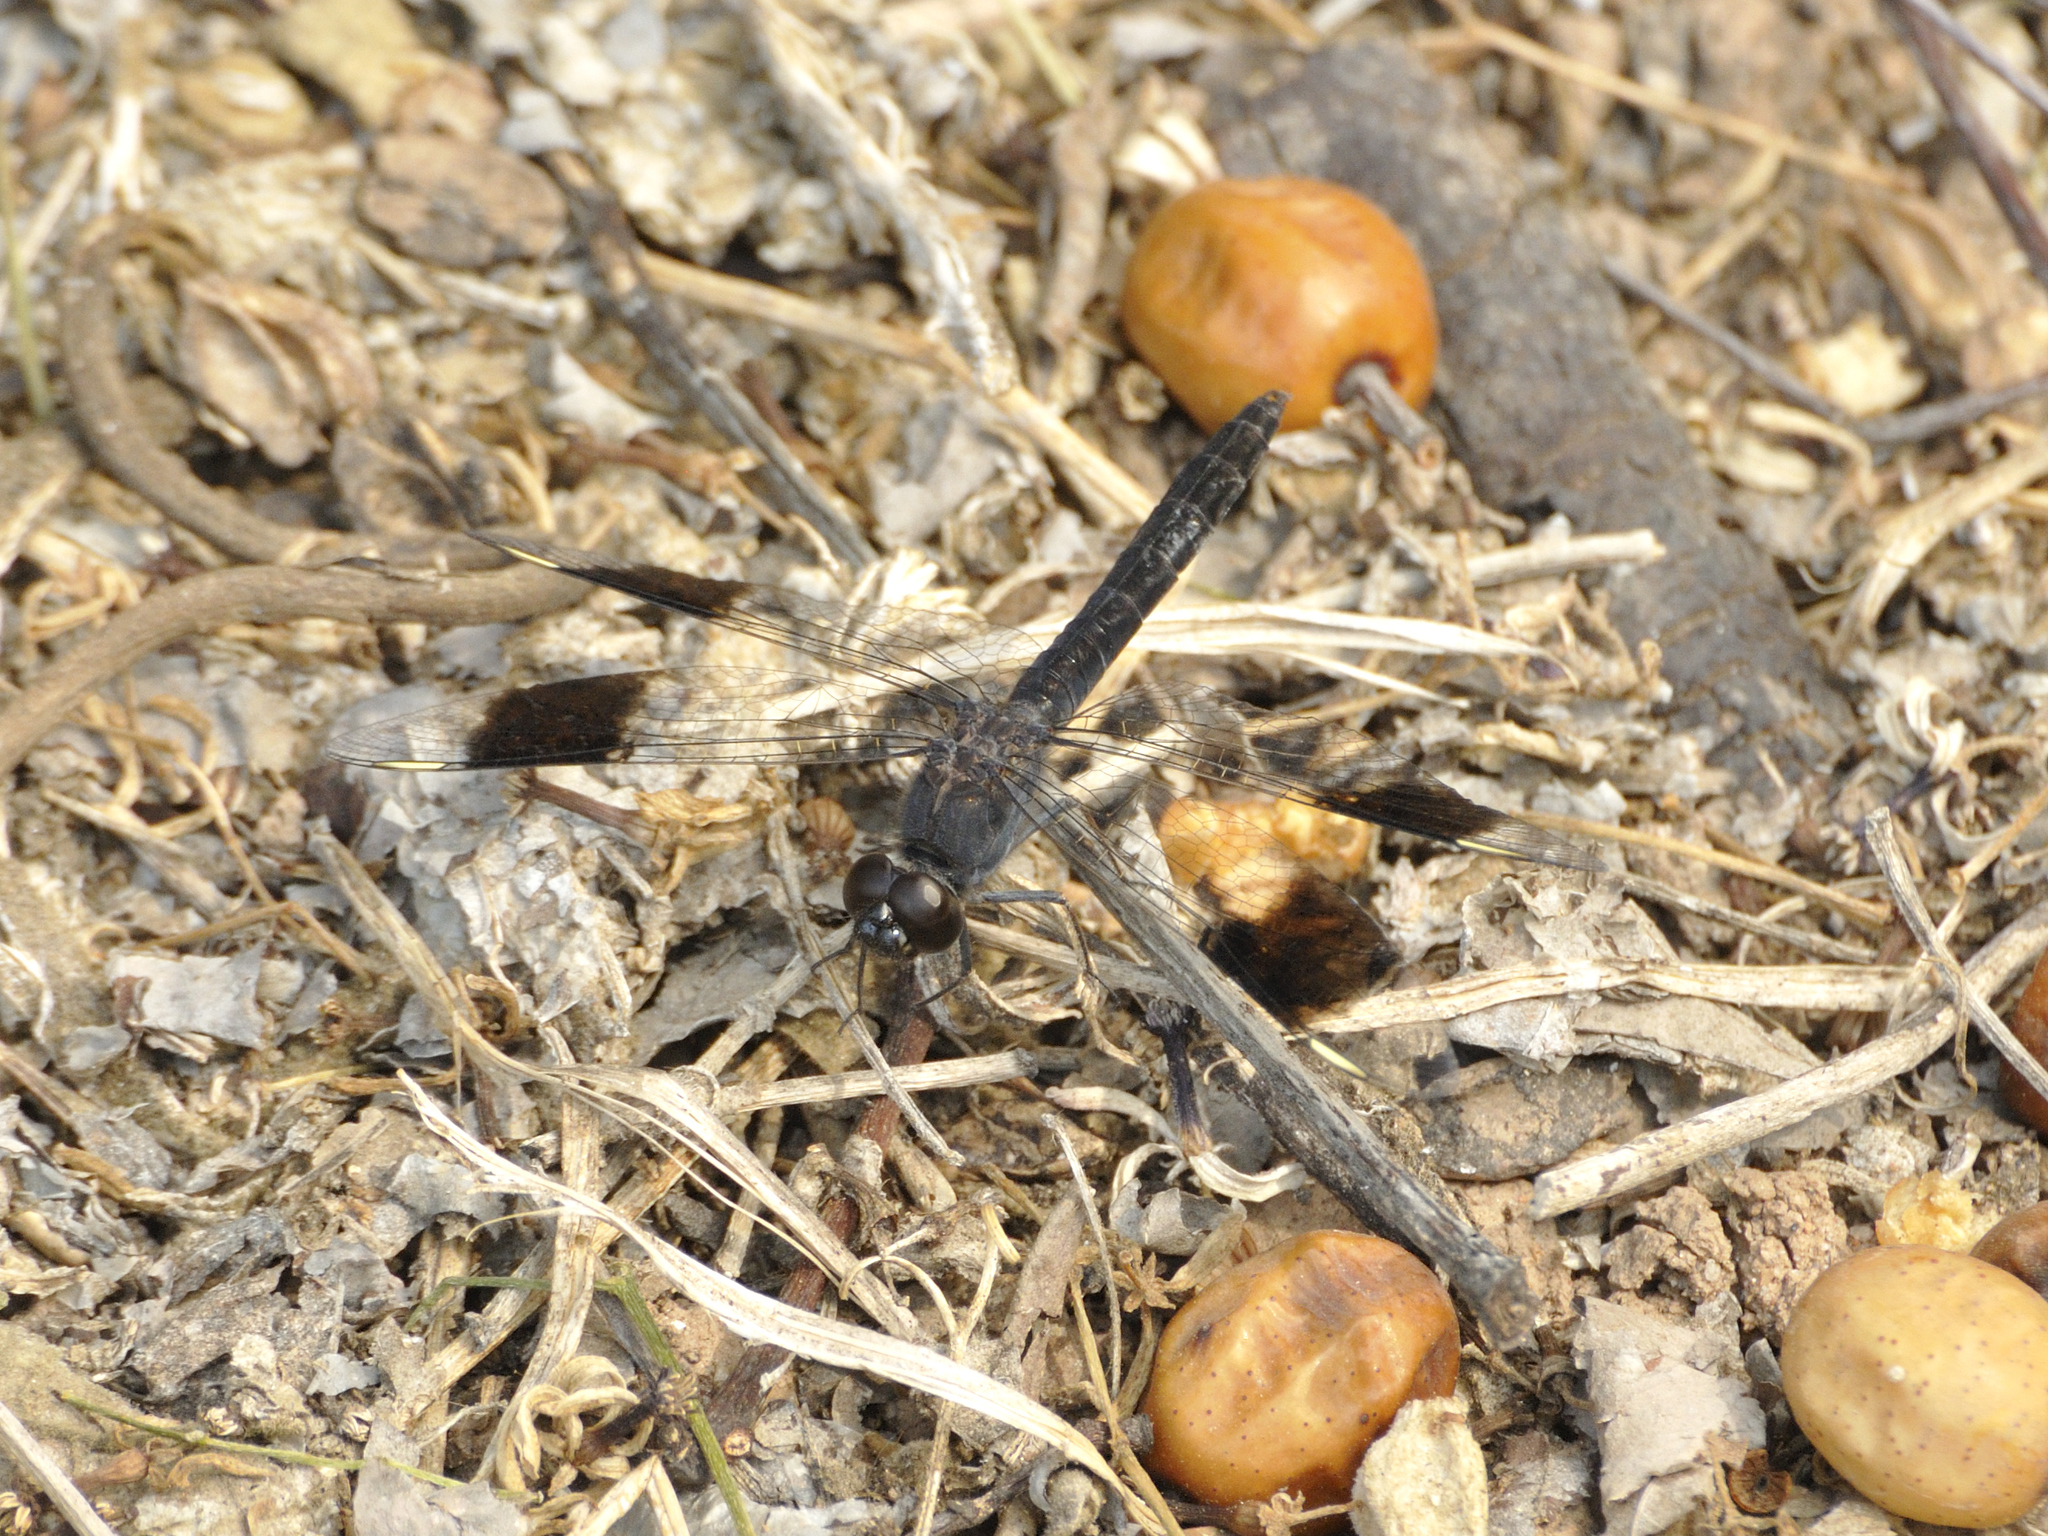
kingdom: Animalia
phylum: Arthropoda
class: Insecta
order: Odonata
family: Libellulidae
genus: Brachythemis
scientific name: Brachythemis leucosticta
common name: Banded groundling
